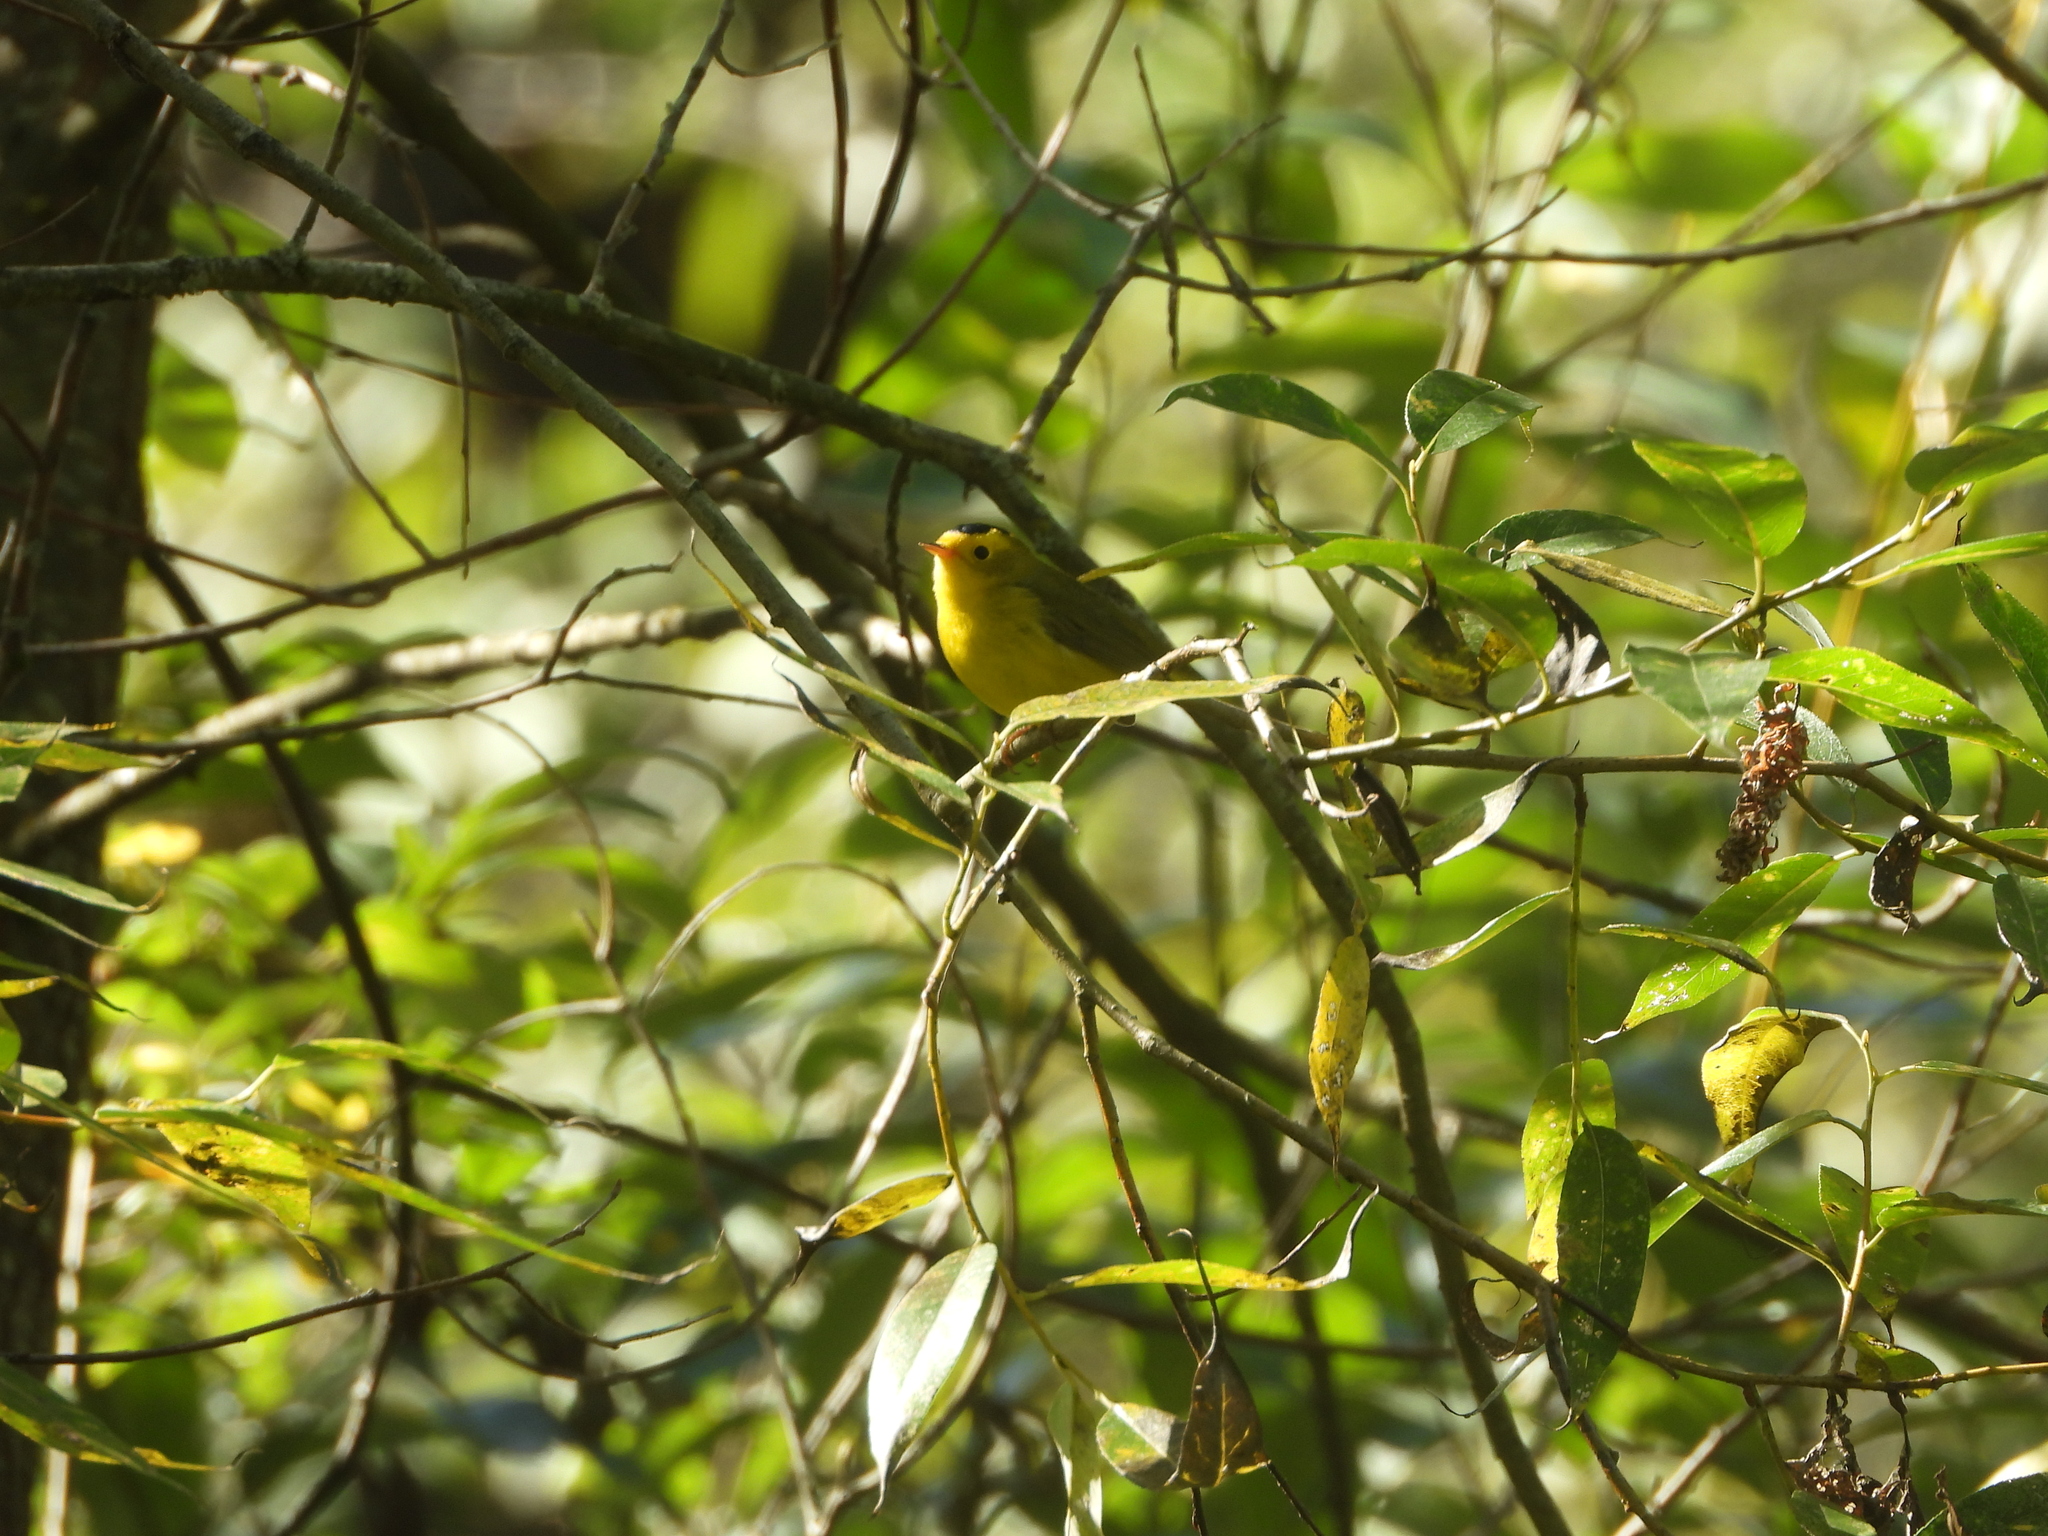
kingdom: Animalia
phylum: Chordata
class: Aves
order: Passeriformes
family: Parulidae
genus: Cardellina
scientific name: Cardellina pusilla
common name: Wilson's warbler
